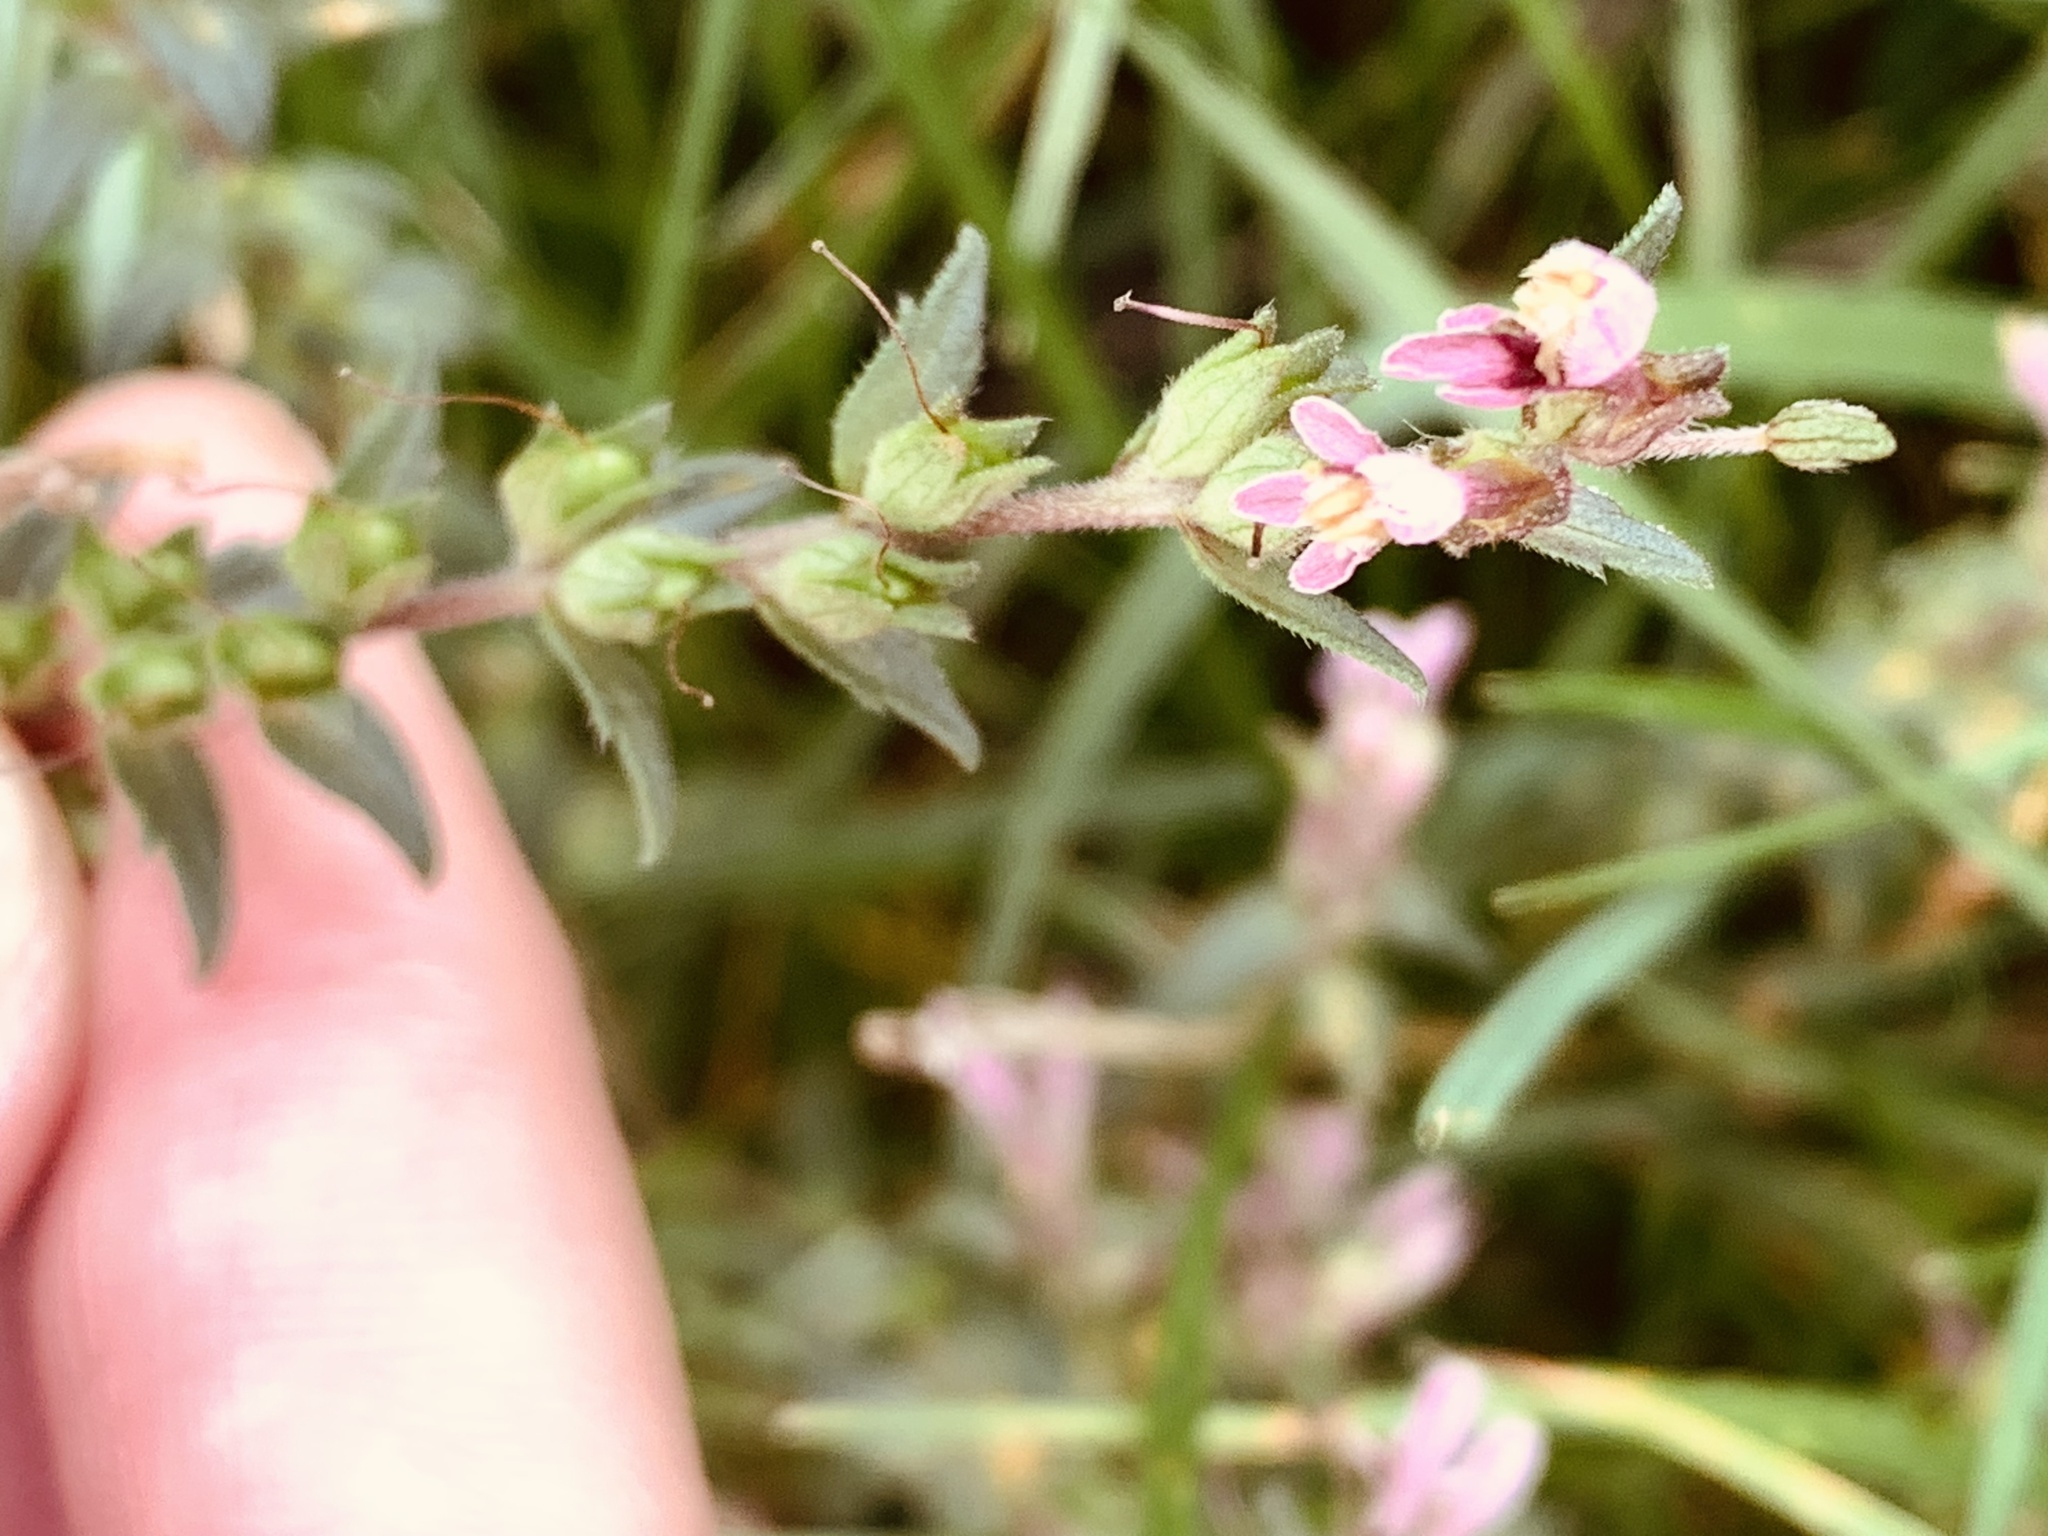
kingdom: Plantae
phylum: Tracheophyta
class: Magnoliopsida
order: Lamiales
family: Orobanchaceae
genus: Odontites
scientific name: Odontites vulgaris
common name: Broomrape
